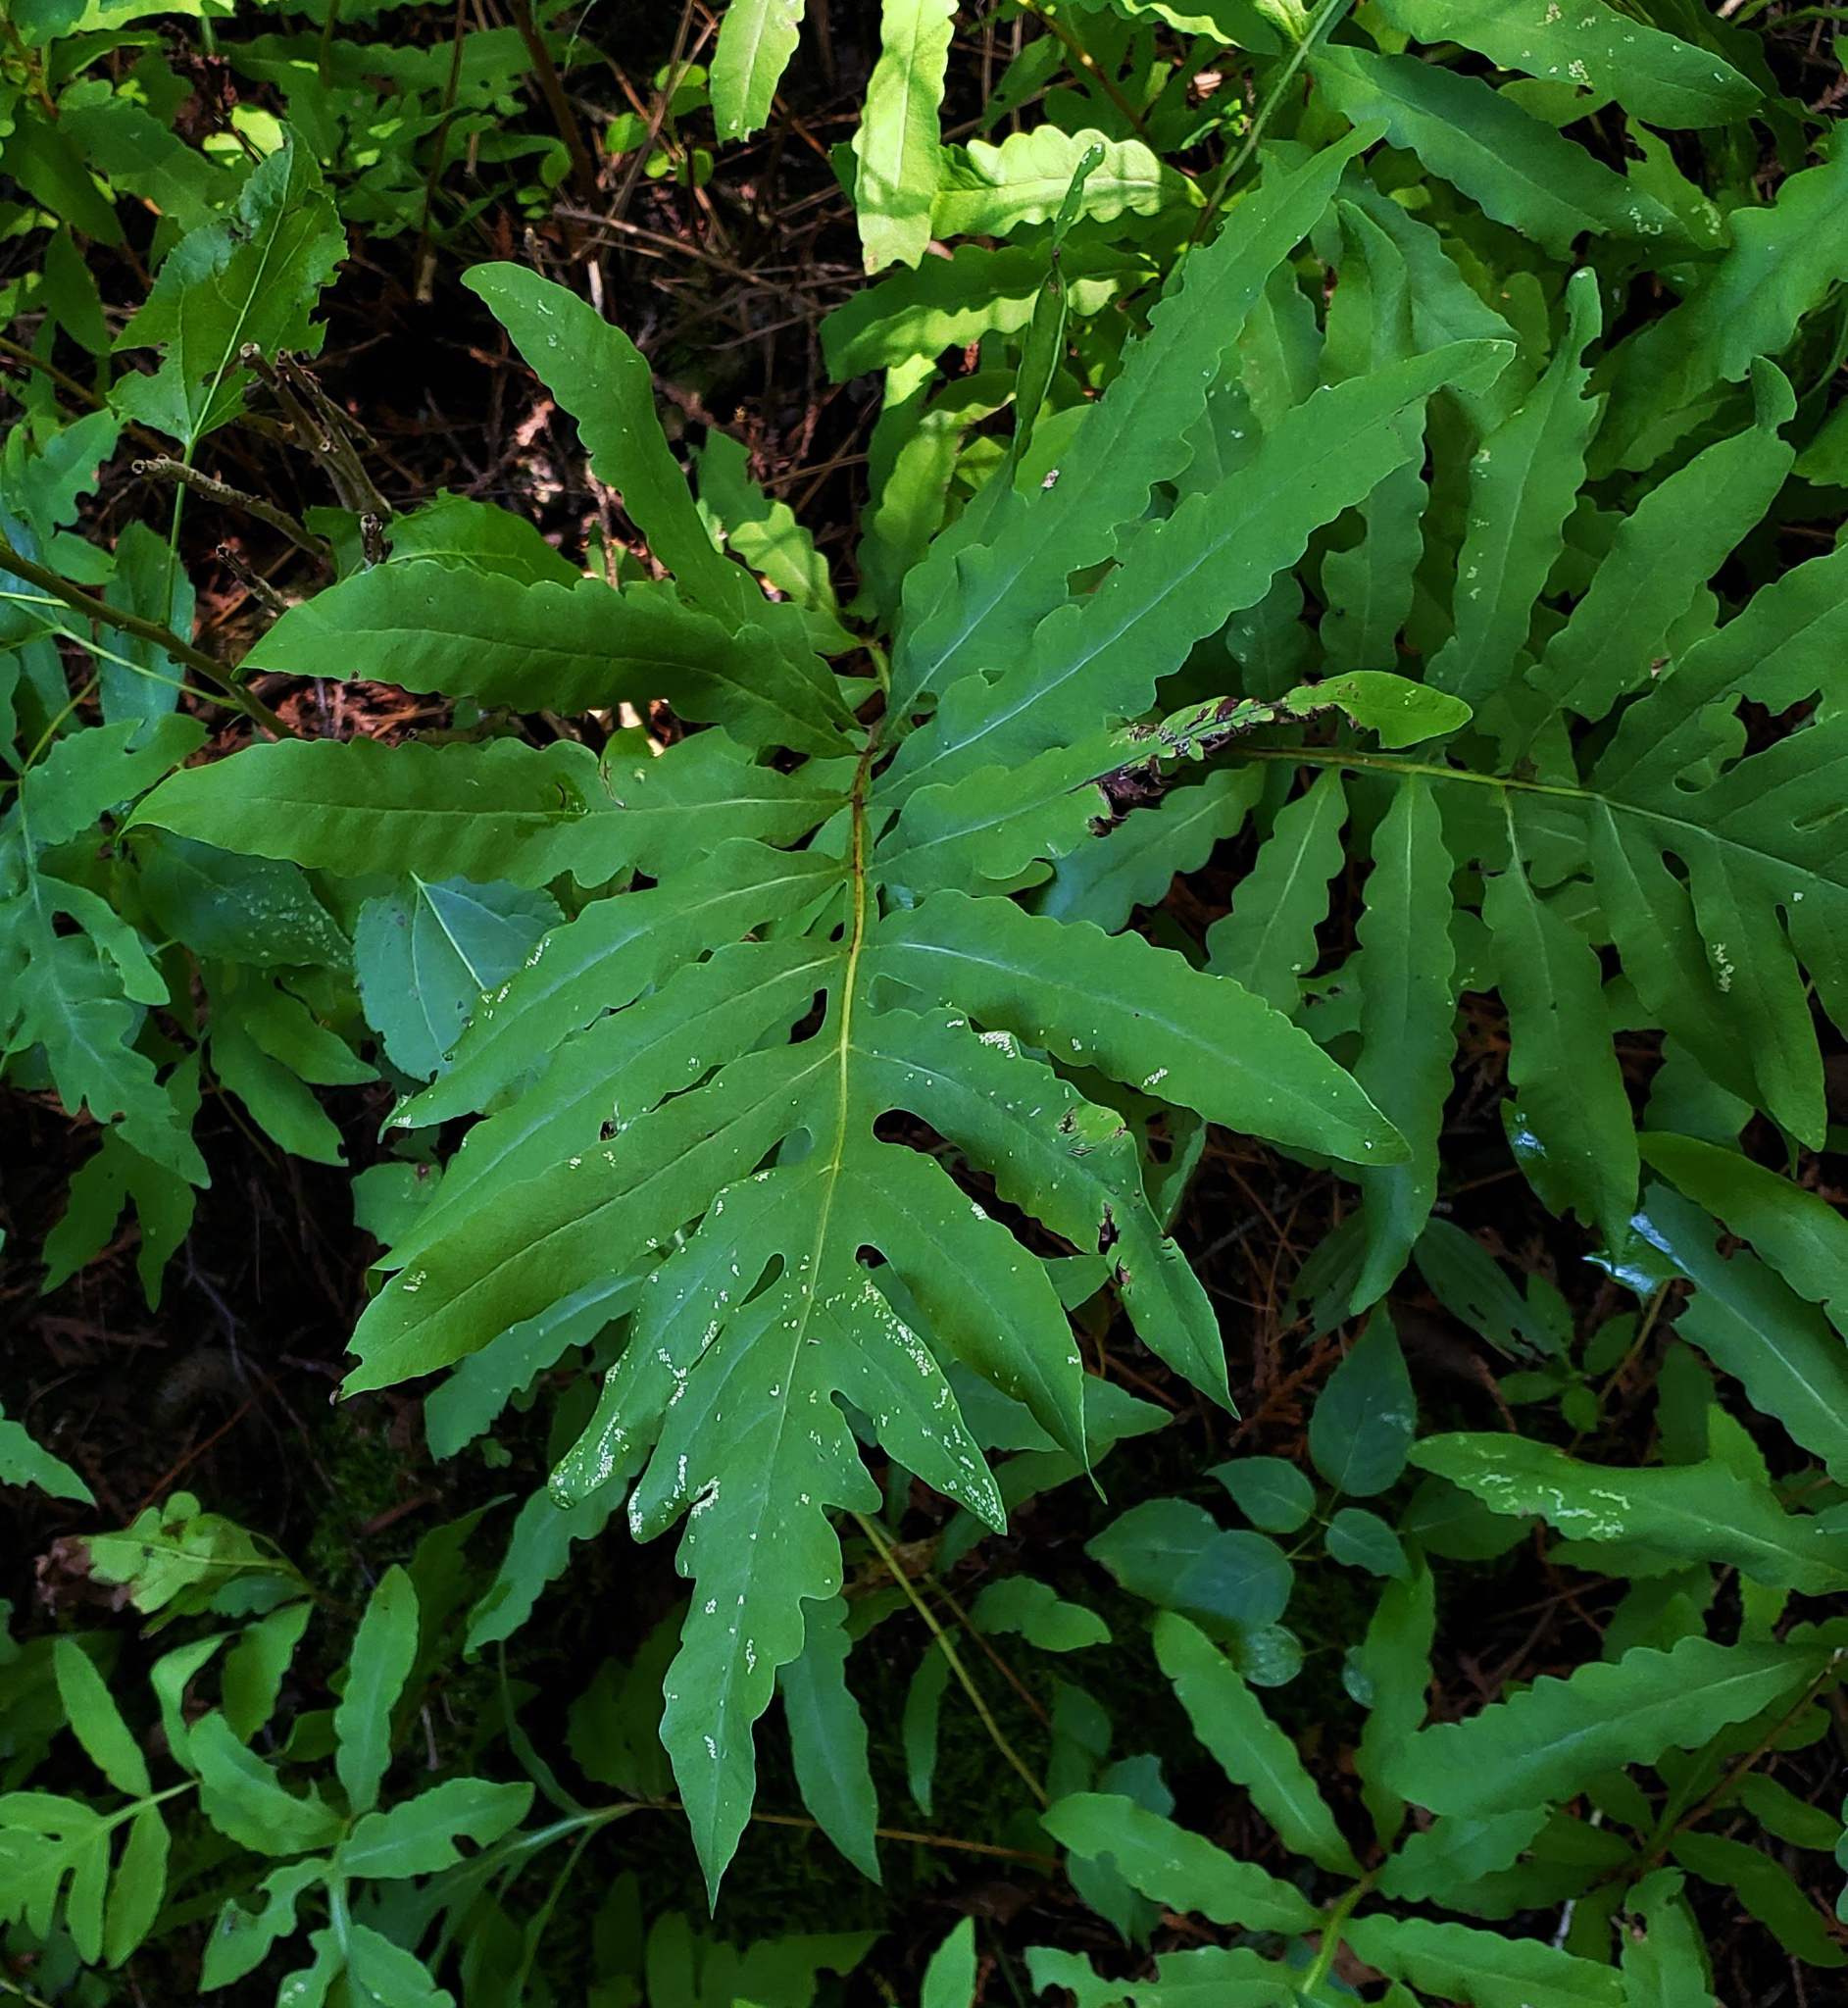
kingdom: Plantae
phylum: Tracheophyta
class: Polypodiopsida
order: Polypodiales
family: Onocleaceae
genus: Onoclea
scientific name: Onoclea sensibilis
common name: Sensitive fern
